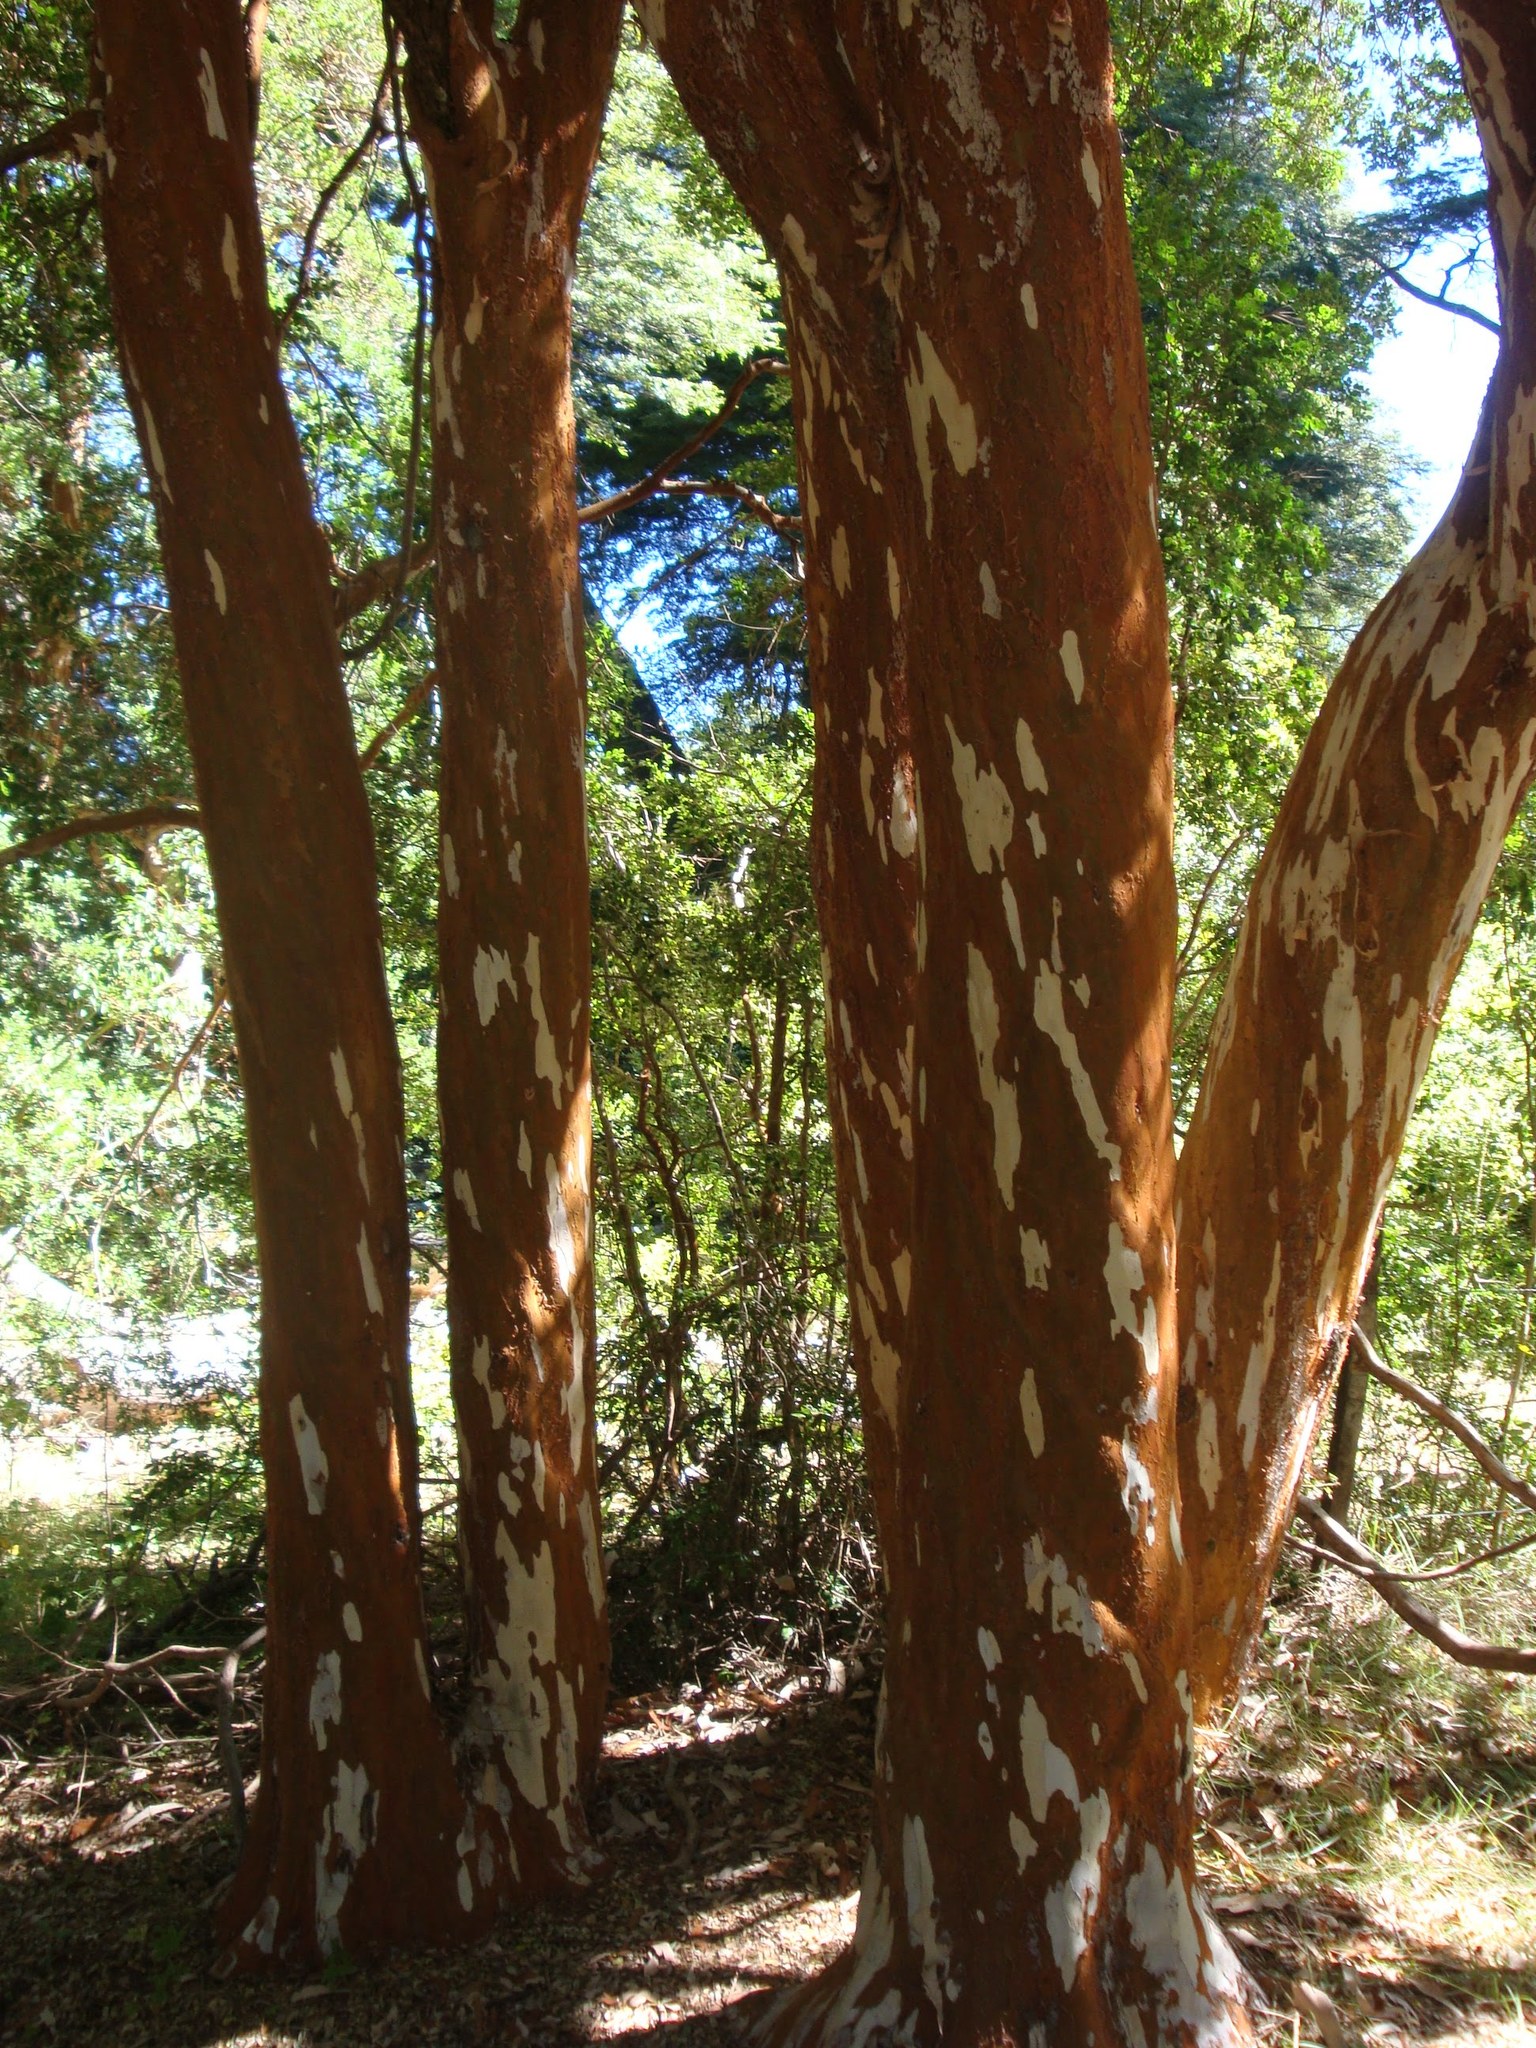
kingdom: Plantae
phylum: Tracheophyta
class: Magnoliopsida
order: Myrtales
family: Myrtaceae
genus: Luma
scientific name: Luma apiculata
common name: Chilean myrtle
